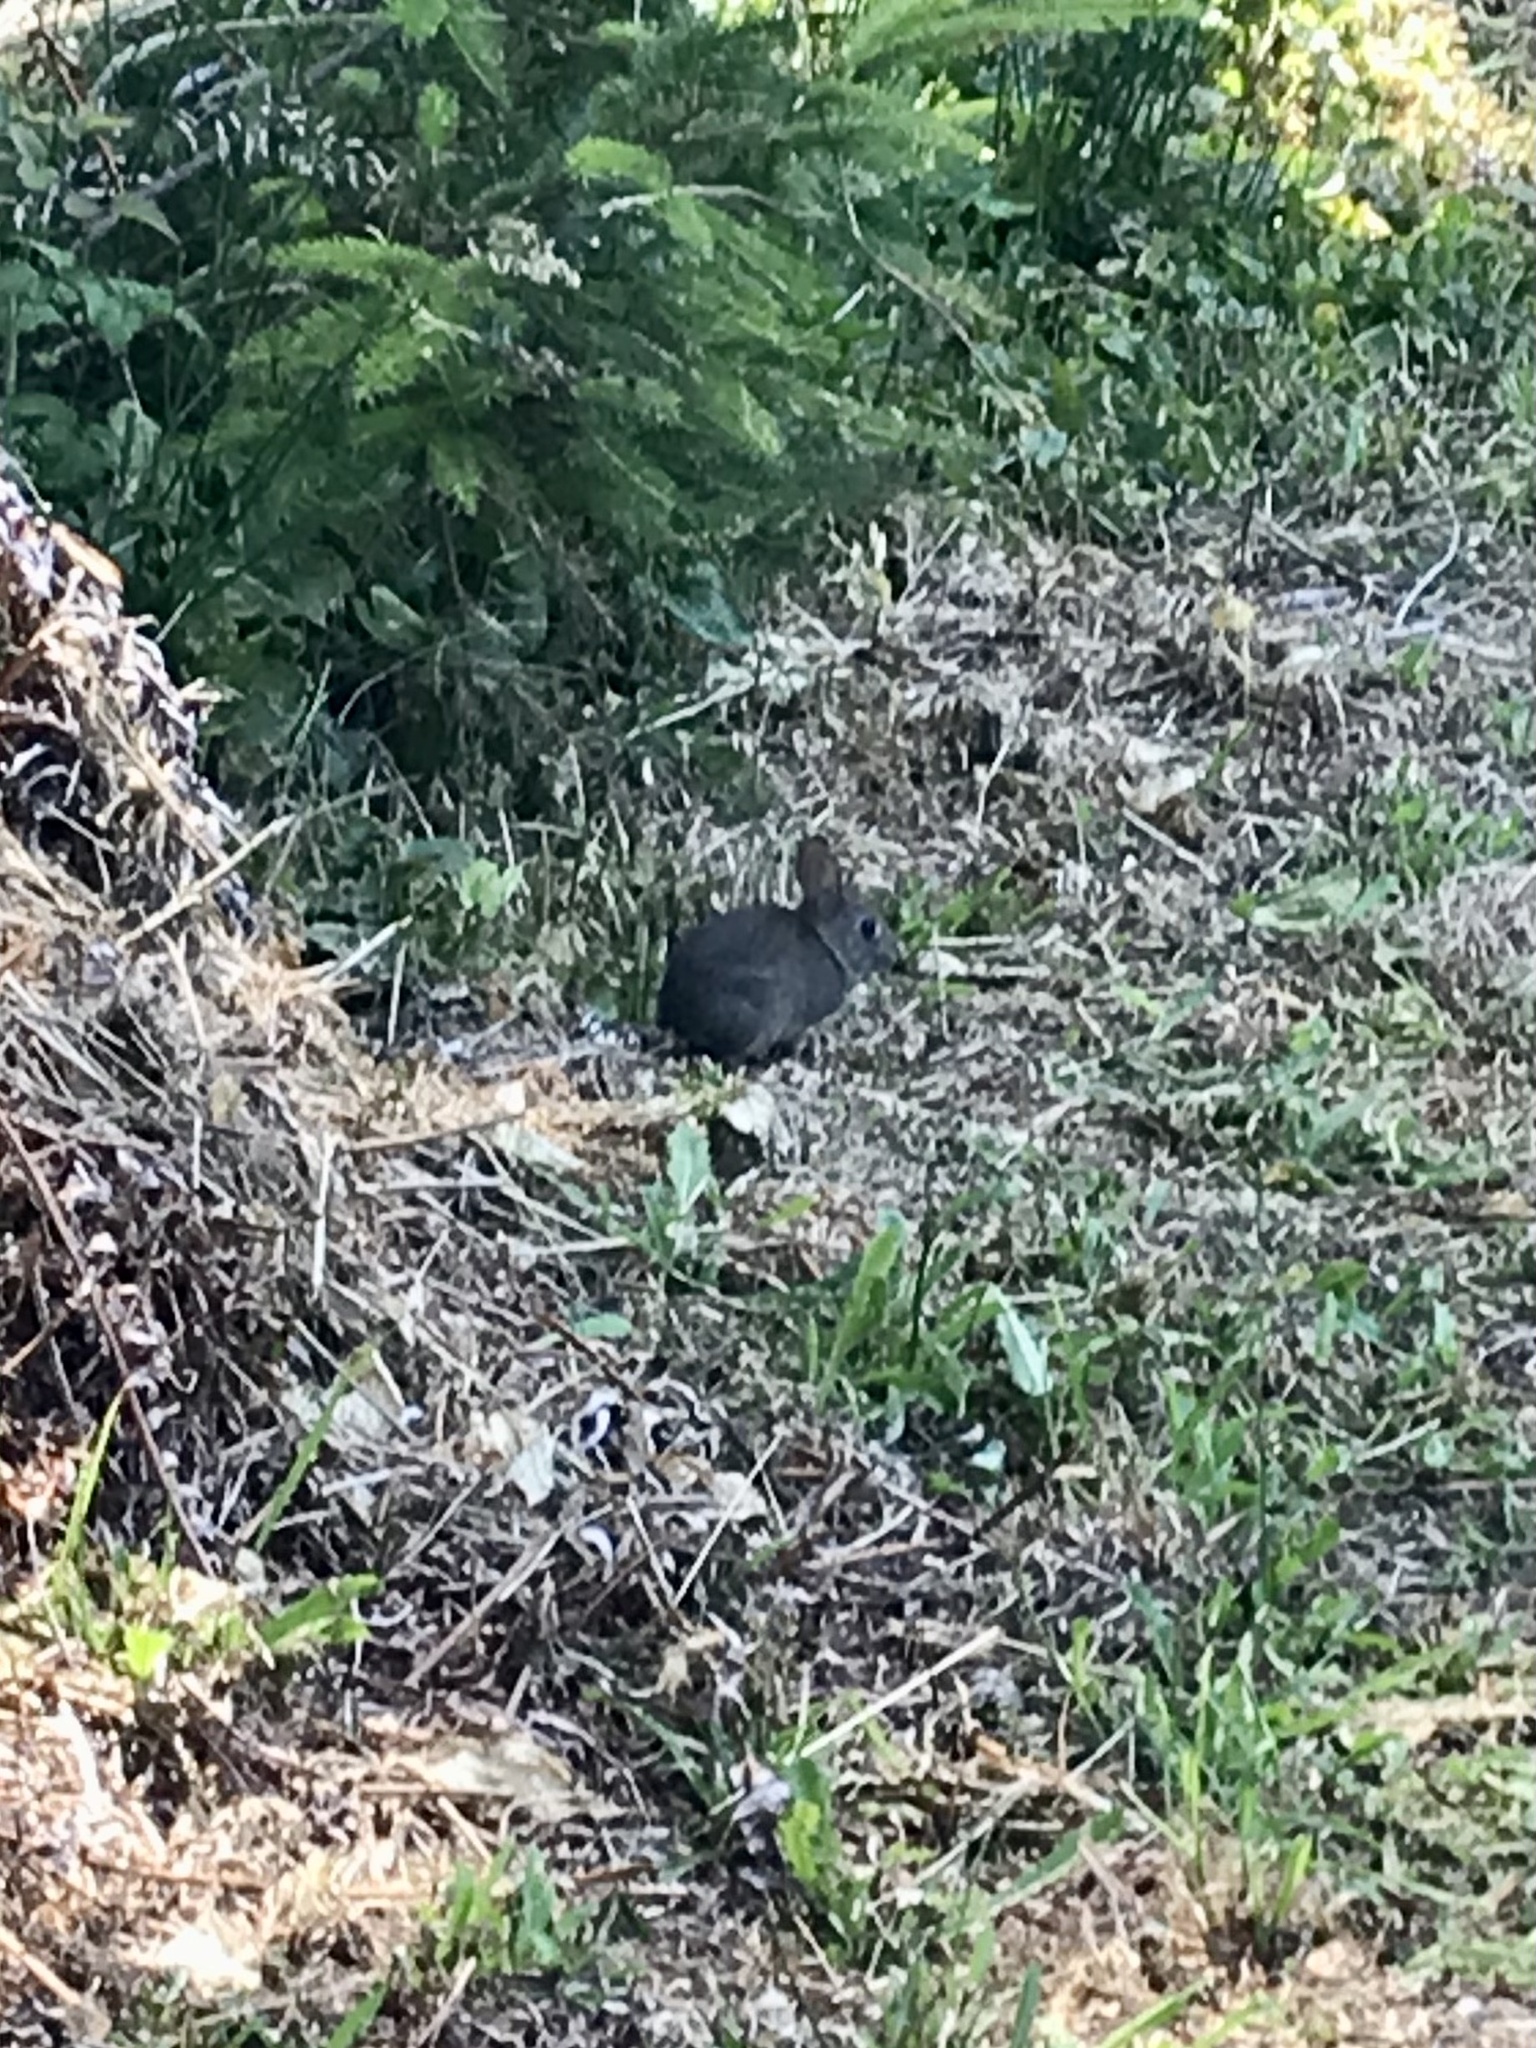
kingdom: Animalia
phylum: Chordata
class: Mammalia
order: Lagomorpha
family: Leporidae
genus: Sylvilagus
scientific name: Sylvilagus bachmani
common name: Brush rabbit
